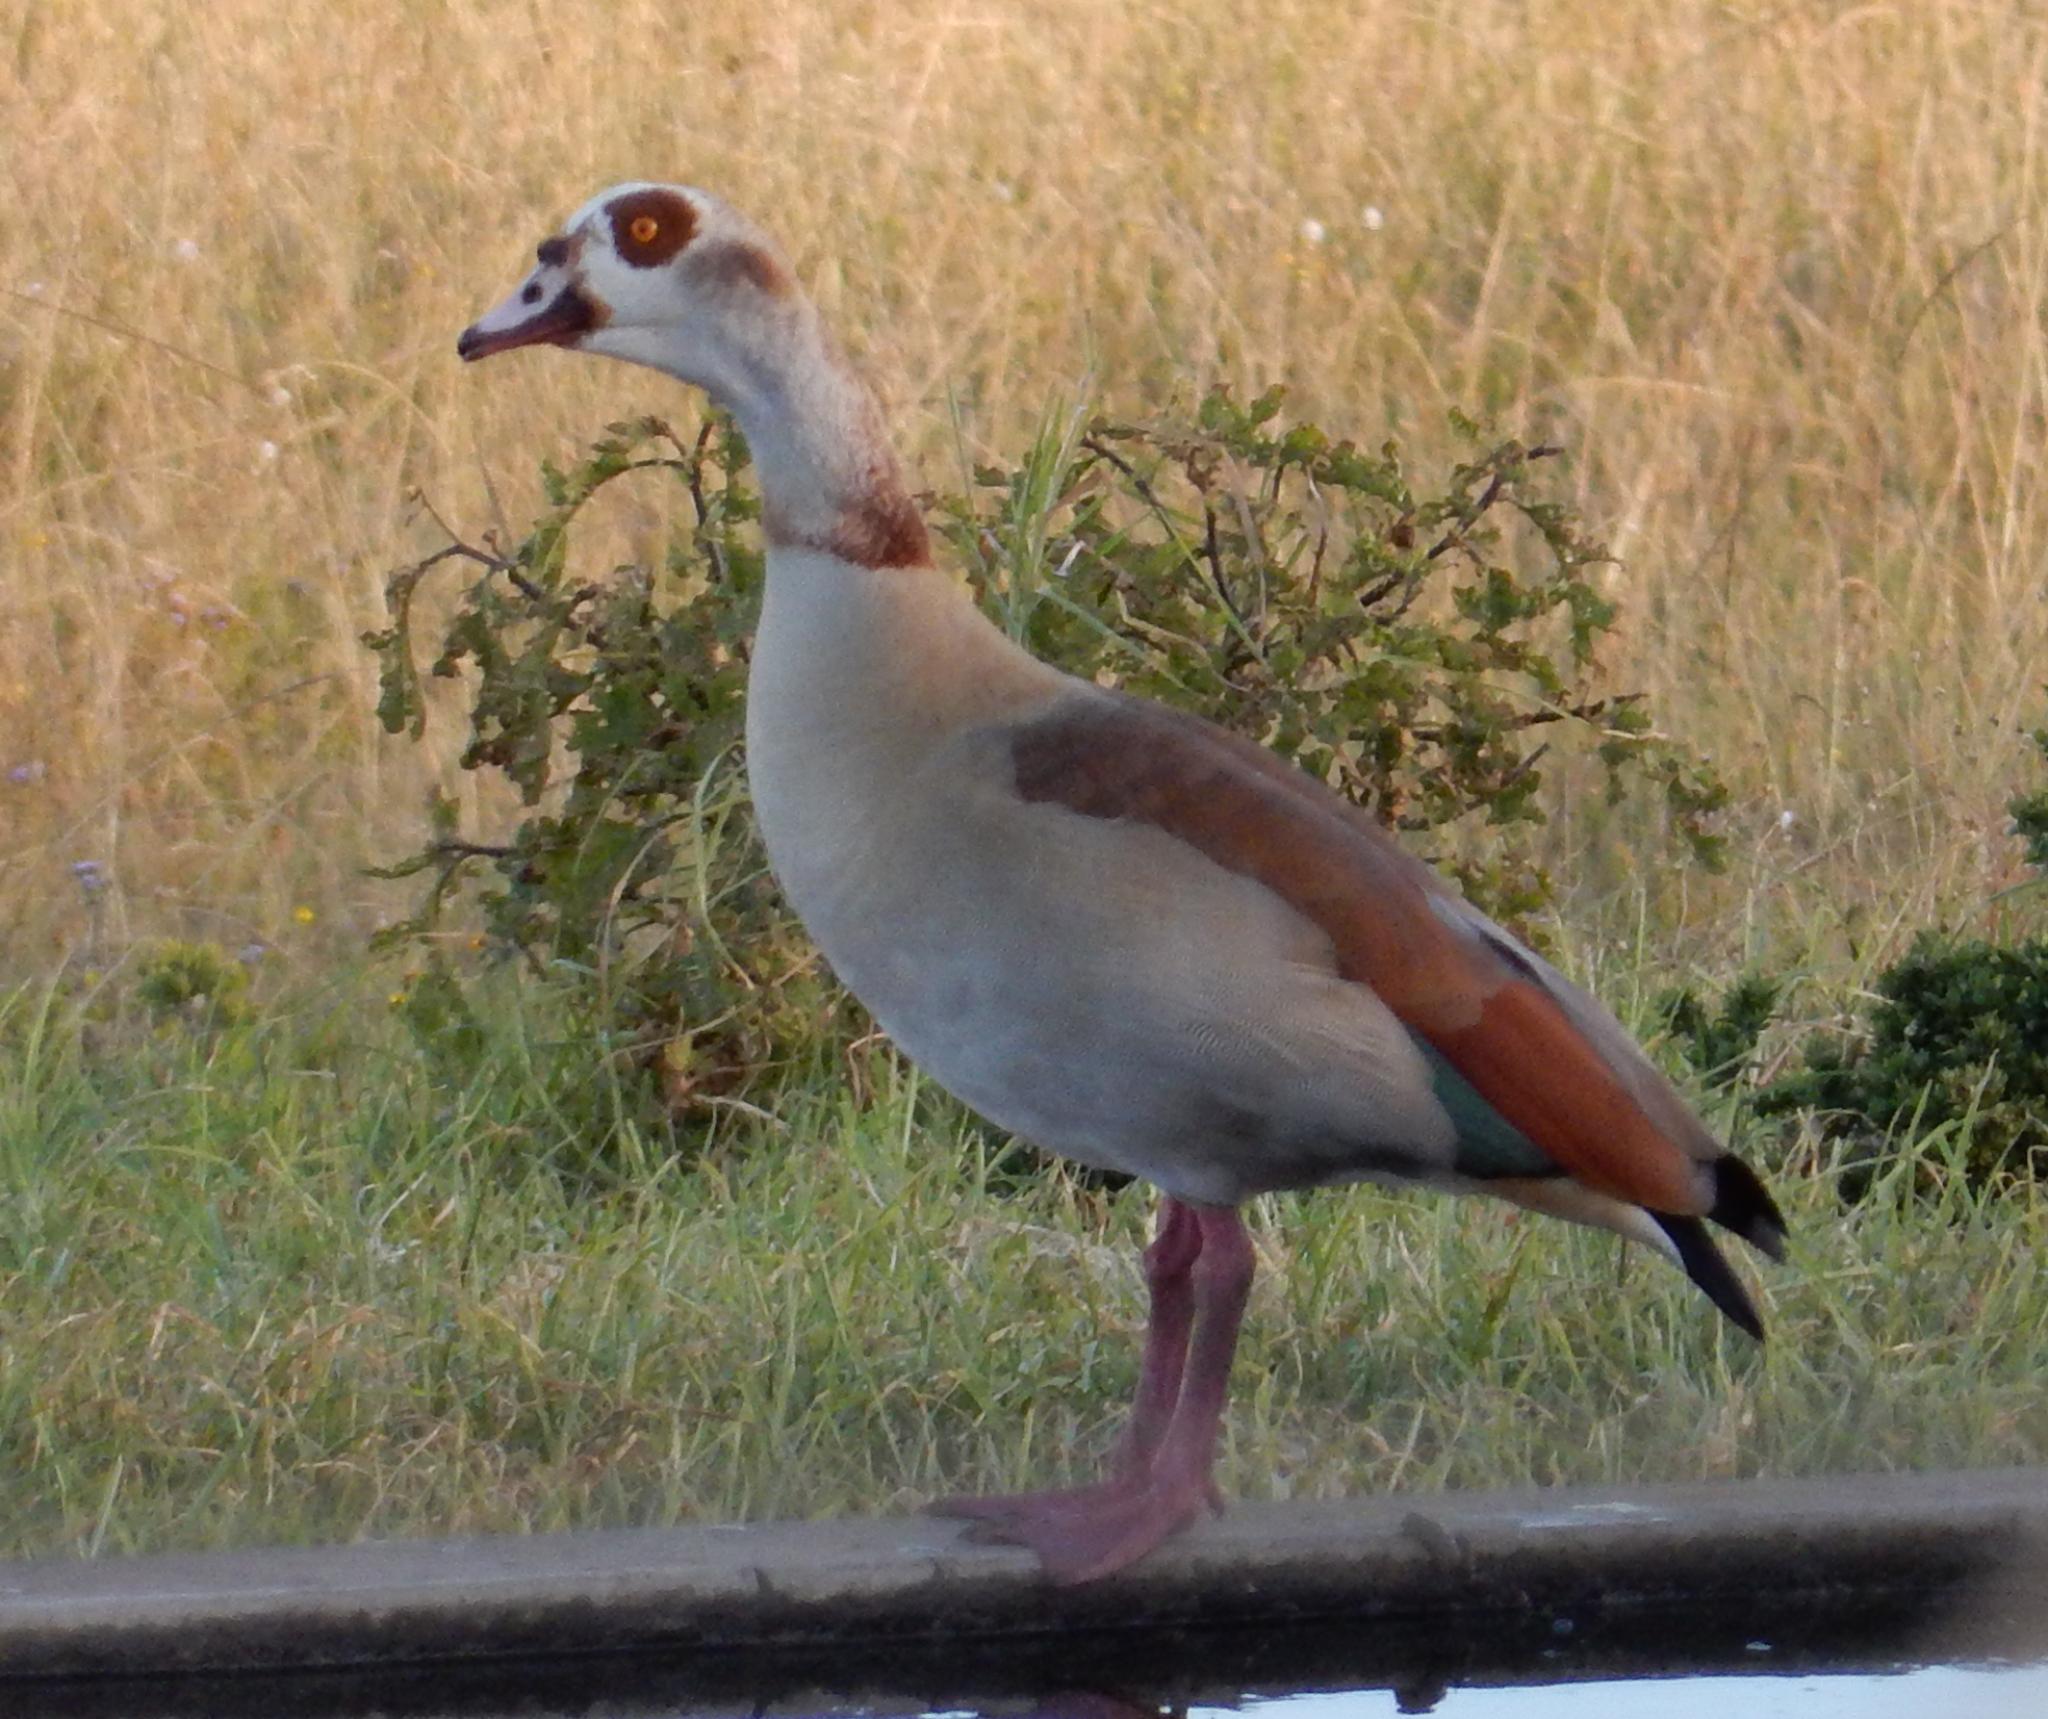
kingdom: Animalia
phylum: Chordata
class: Aves
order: Anseriformes
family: Anatidae
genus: Alopochen
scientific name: Alopochen aegyptiaca
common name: Egyptian goose
